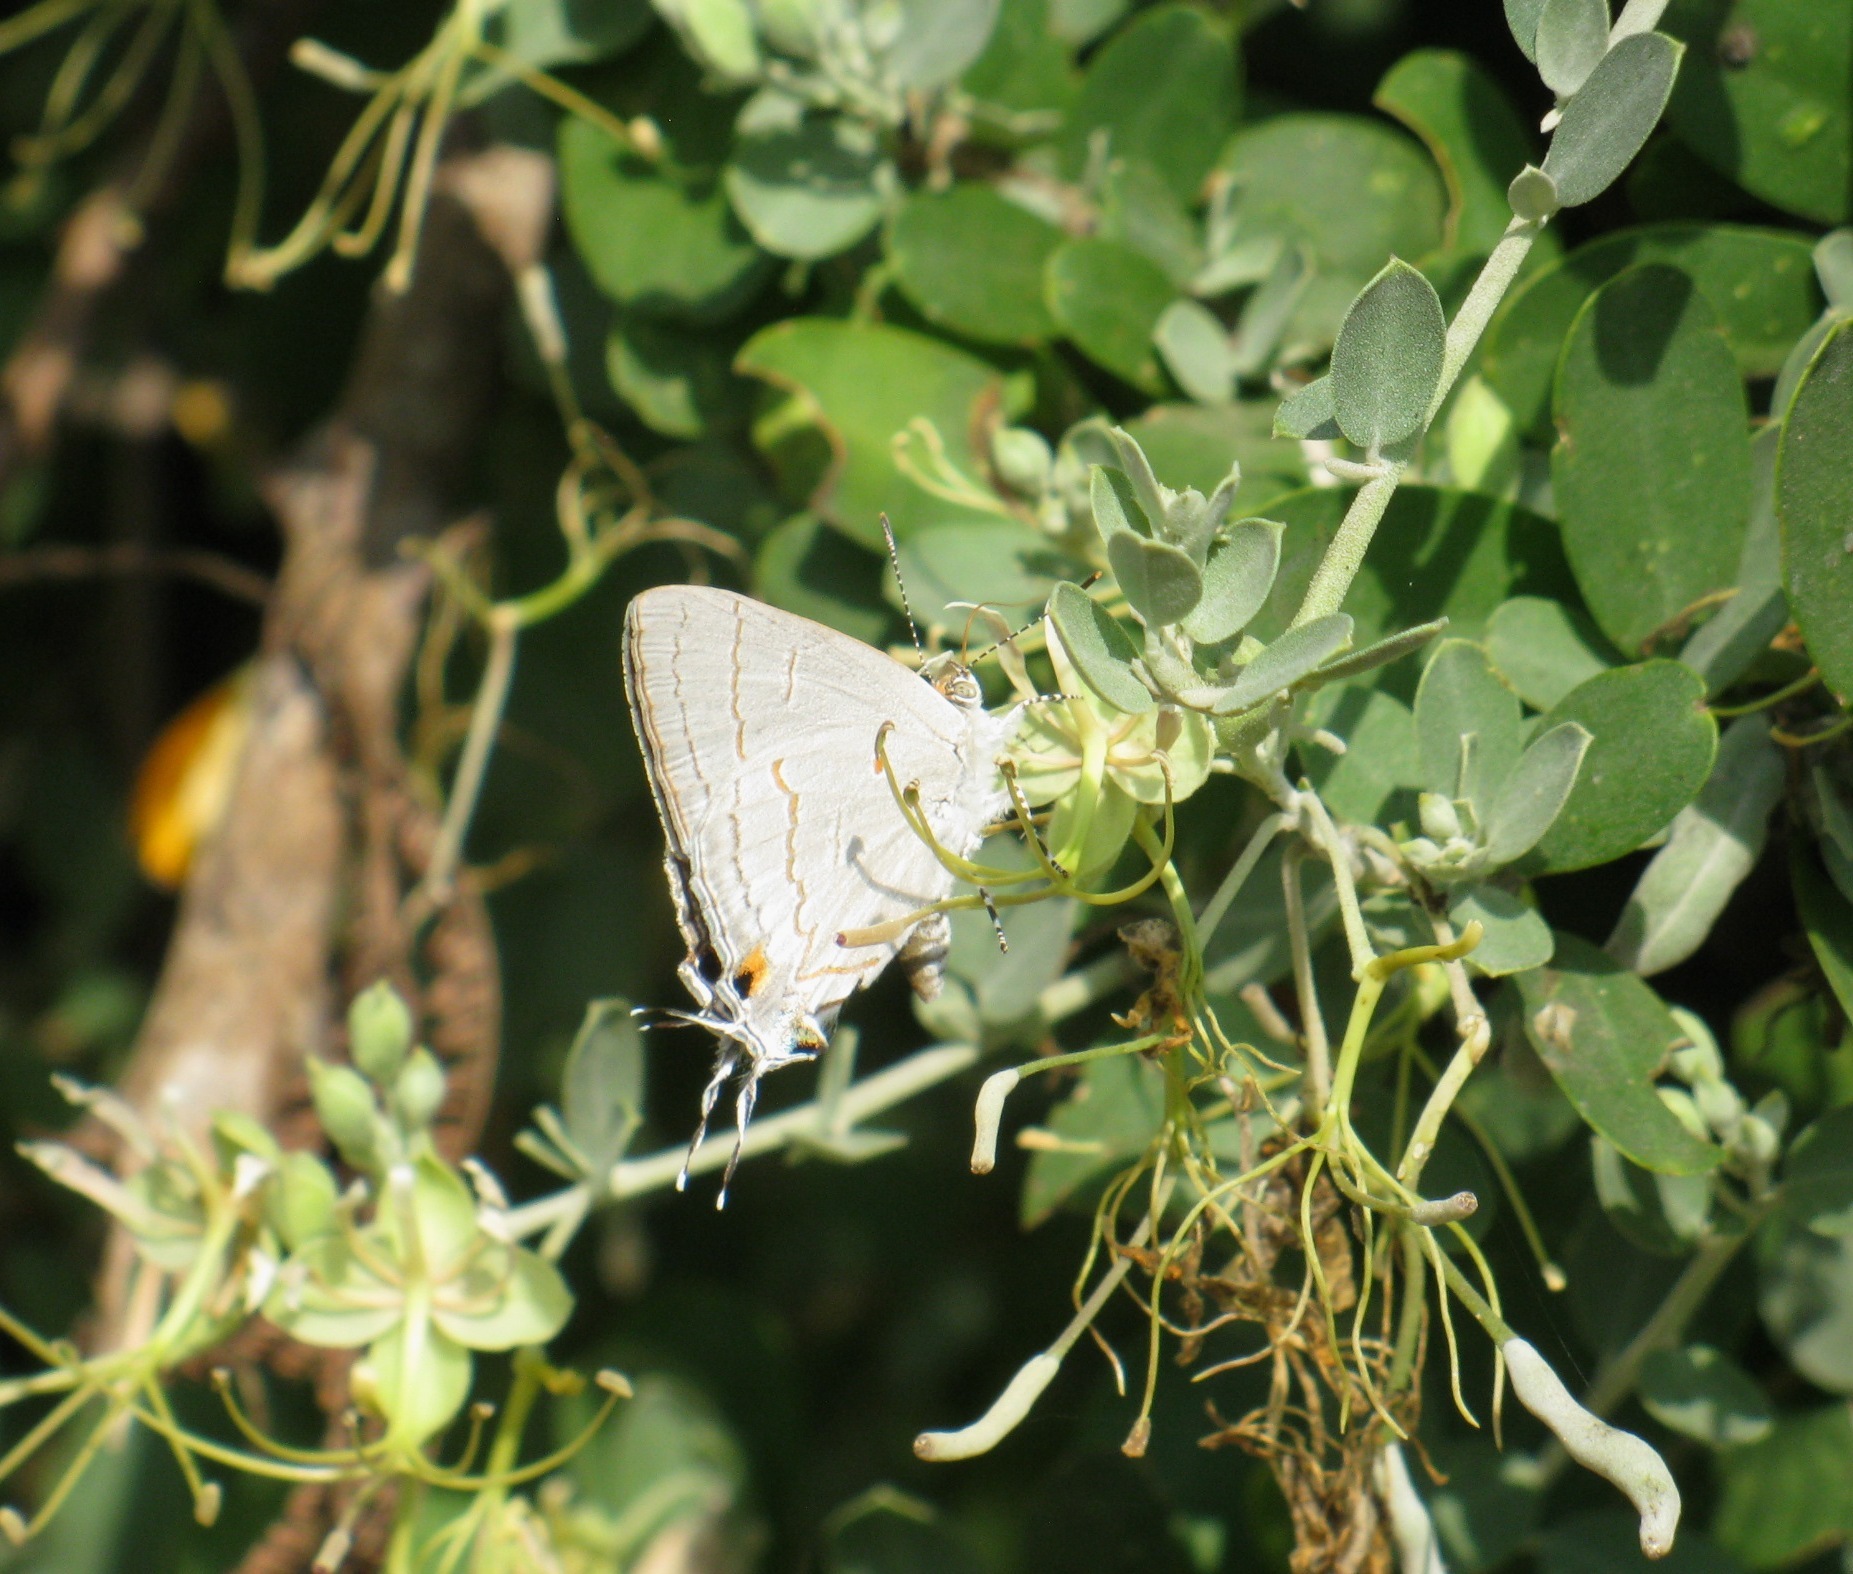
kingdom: Animalia
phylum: Arthropoda
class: Insecta
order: Lepidoptera
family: Lycaenidae
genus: Hypolycaena
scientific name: Hypolycaena philippus
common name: Common hairstreak
